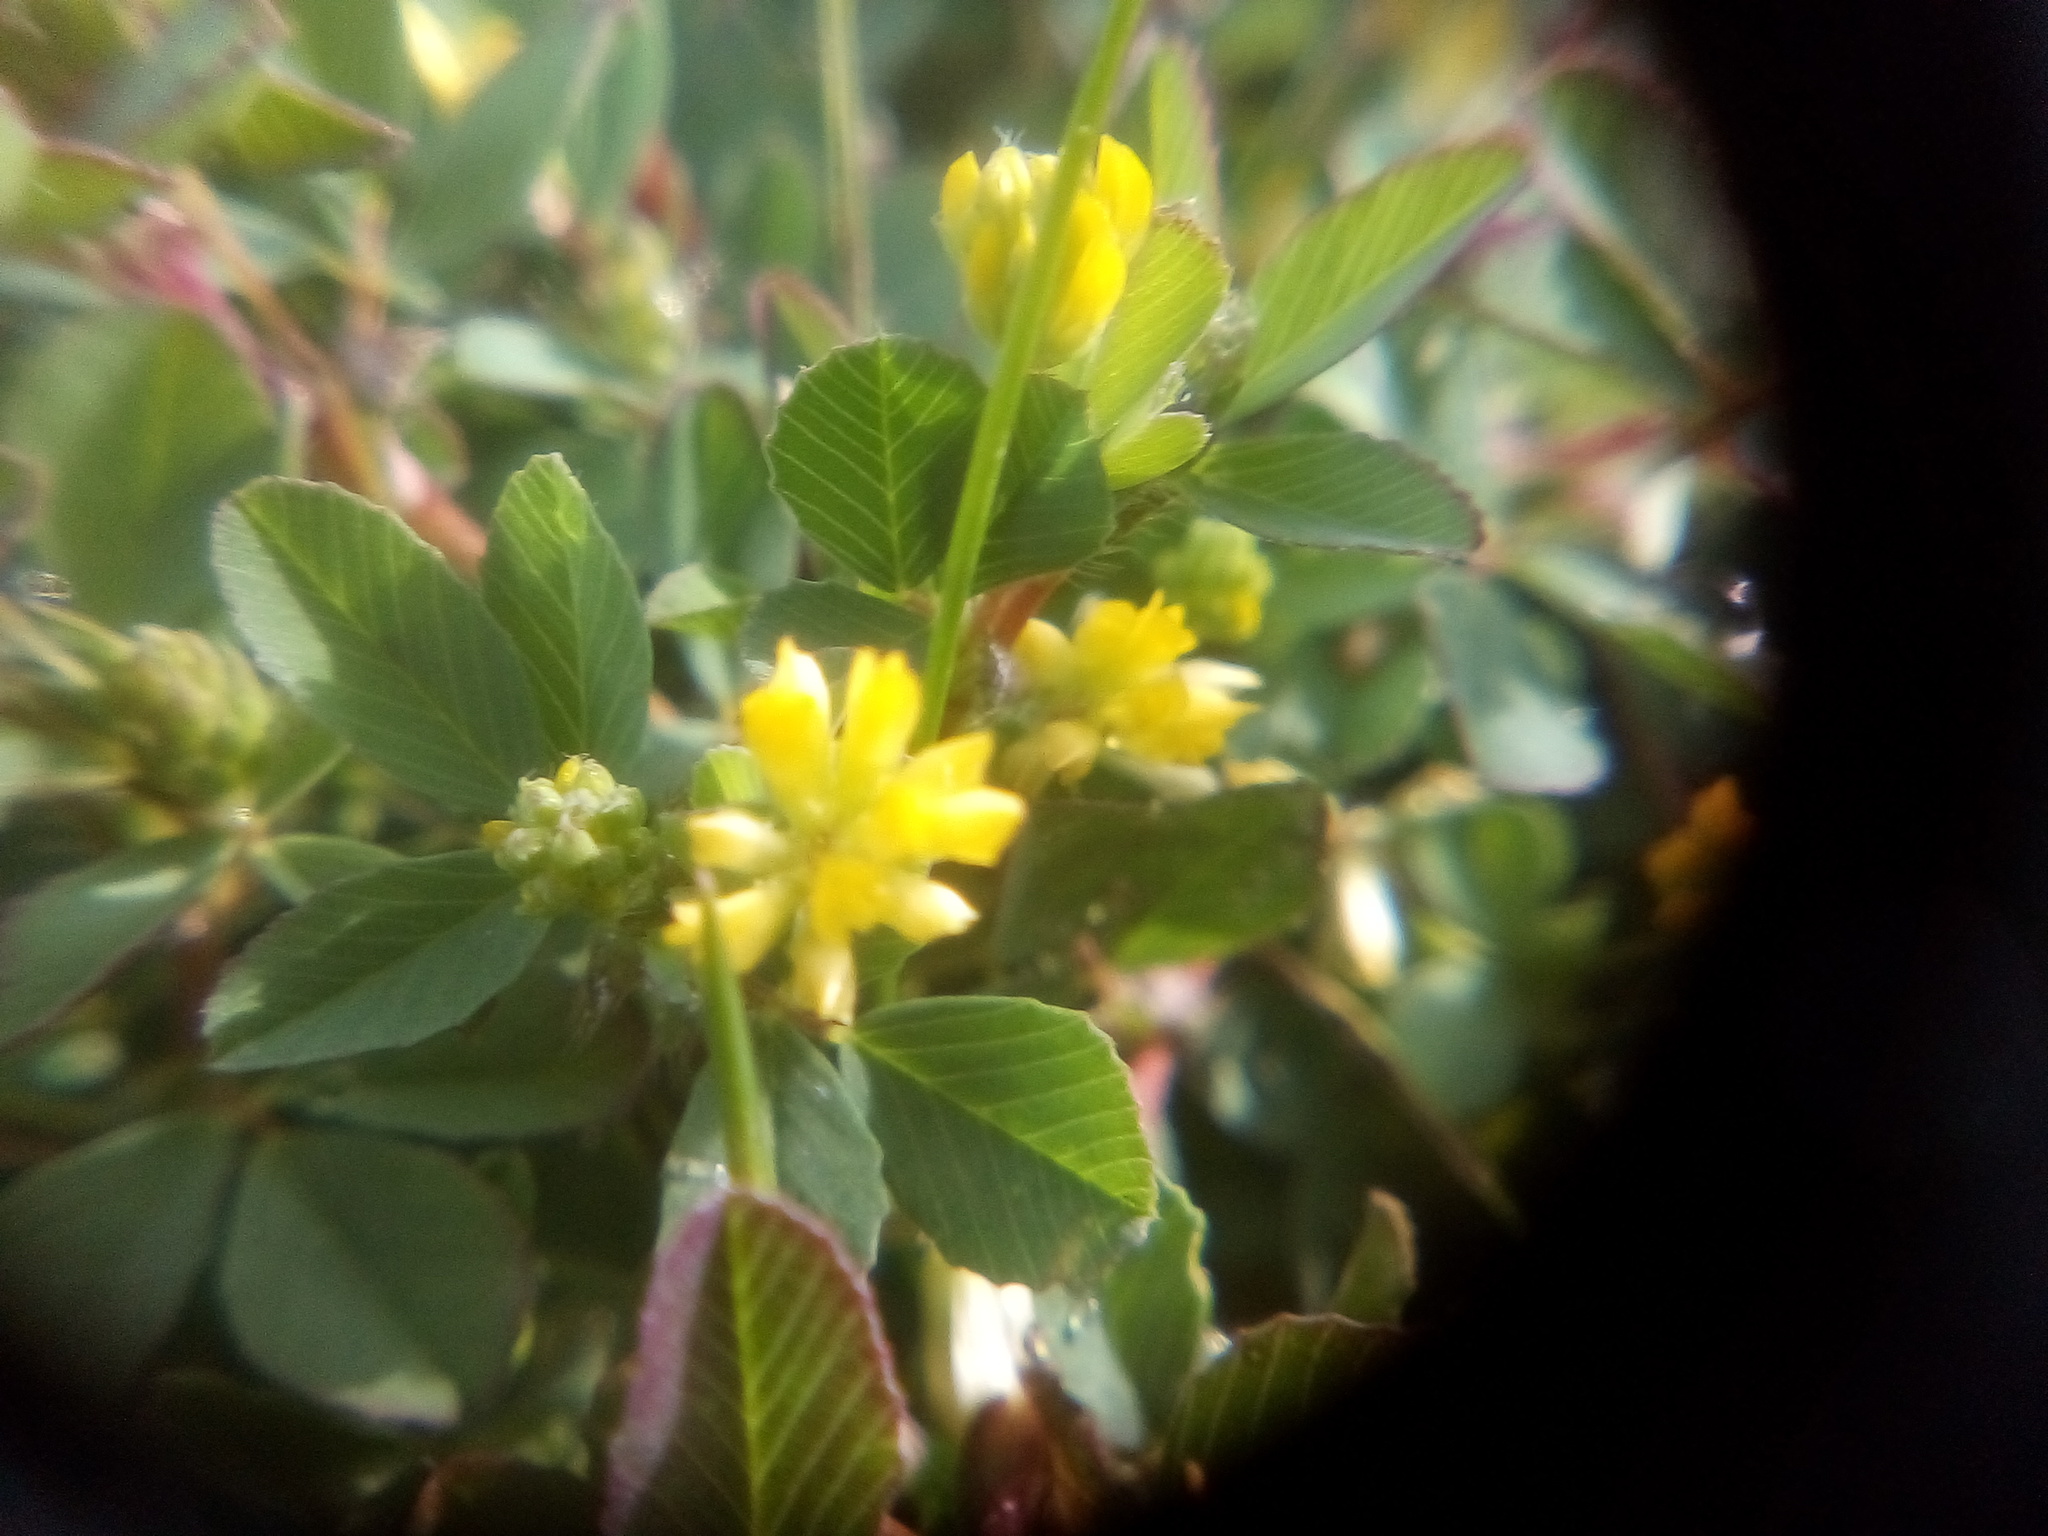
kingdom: Plantae
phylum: Tracheophyta
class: Magnoliopsida
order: Fabales
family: Fabaceae
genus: Trifolium
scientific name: Trifolium dubium
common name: Suckling clover
